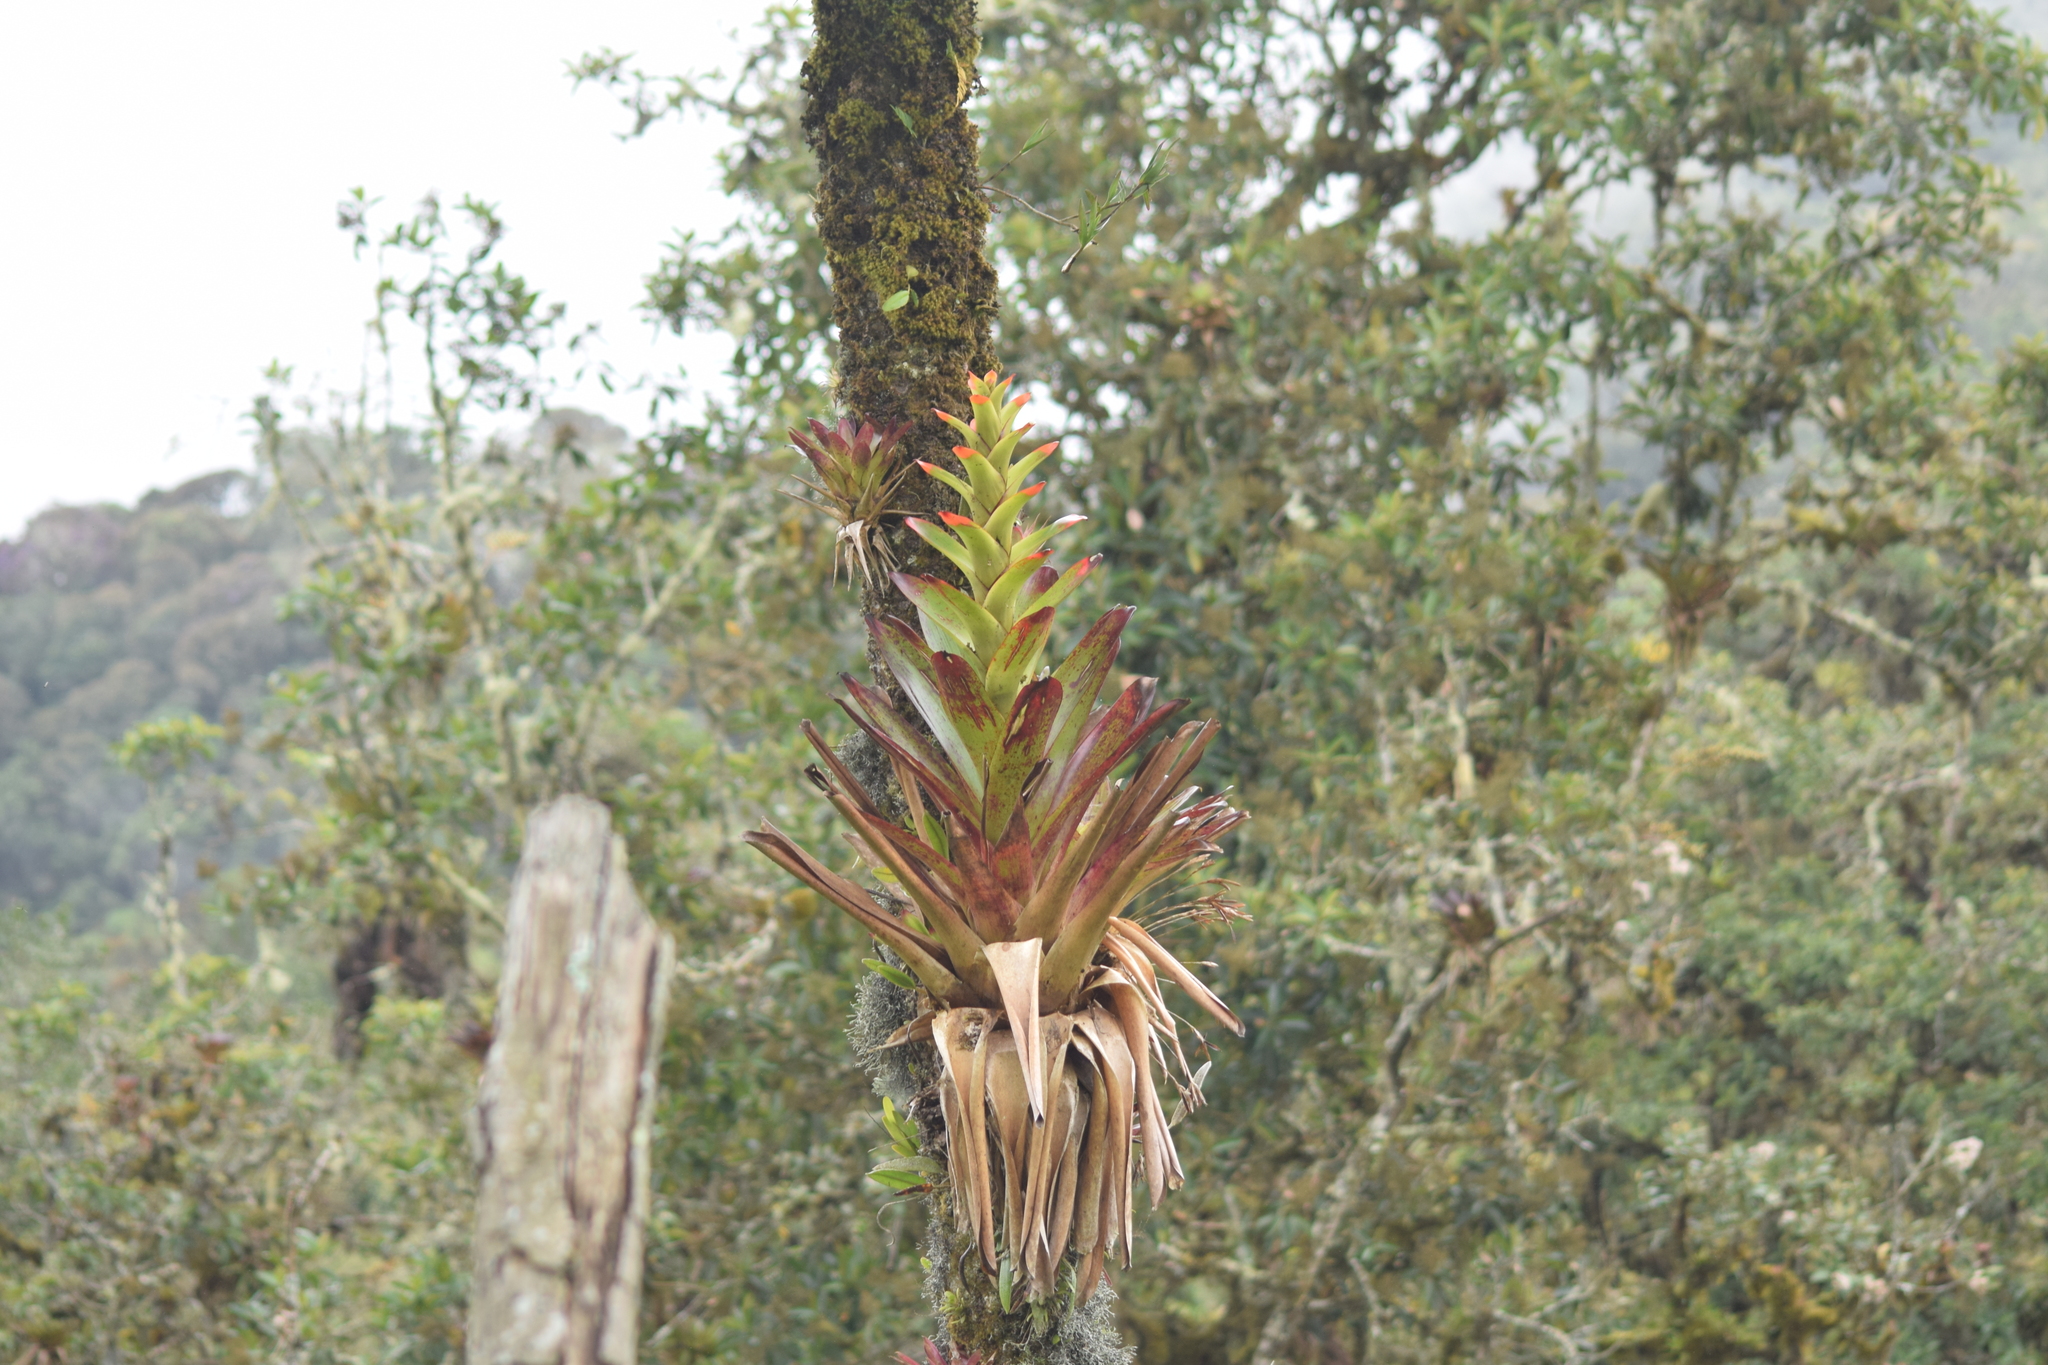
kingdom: Plantae
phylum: Tracheophyta
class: Liliopsida
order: Poales
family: Bromeliaceae
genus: Guzmania
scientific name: Guzmania gloriosa
